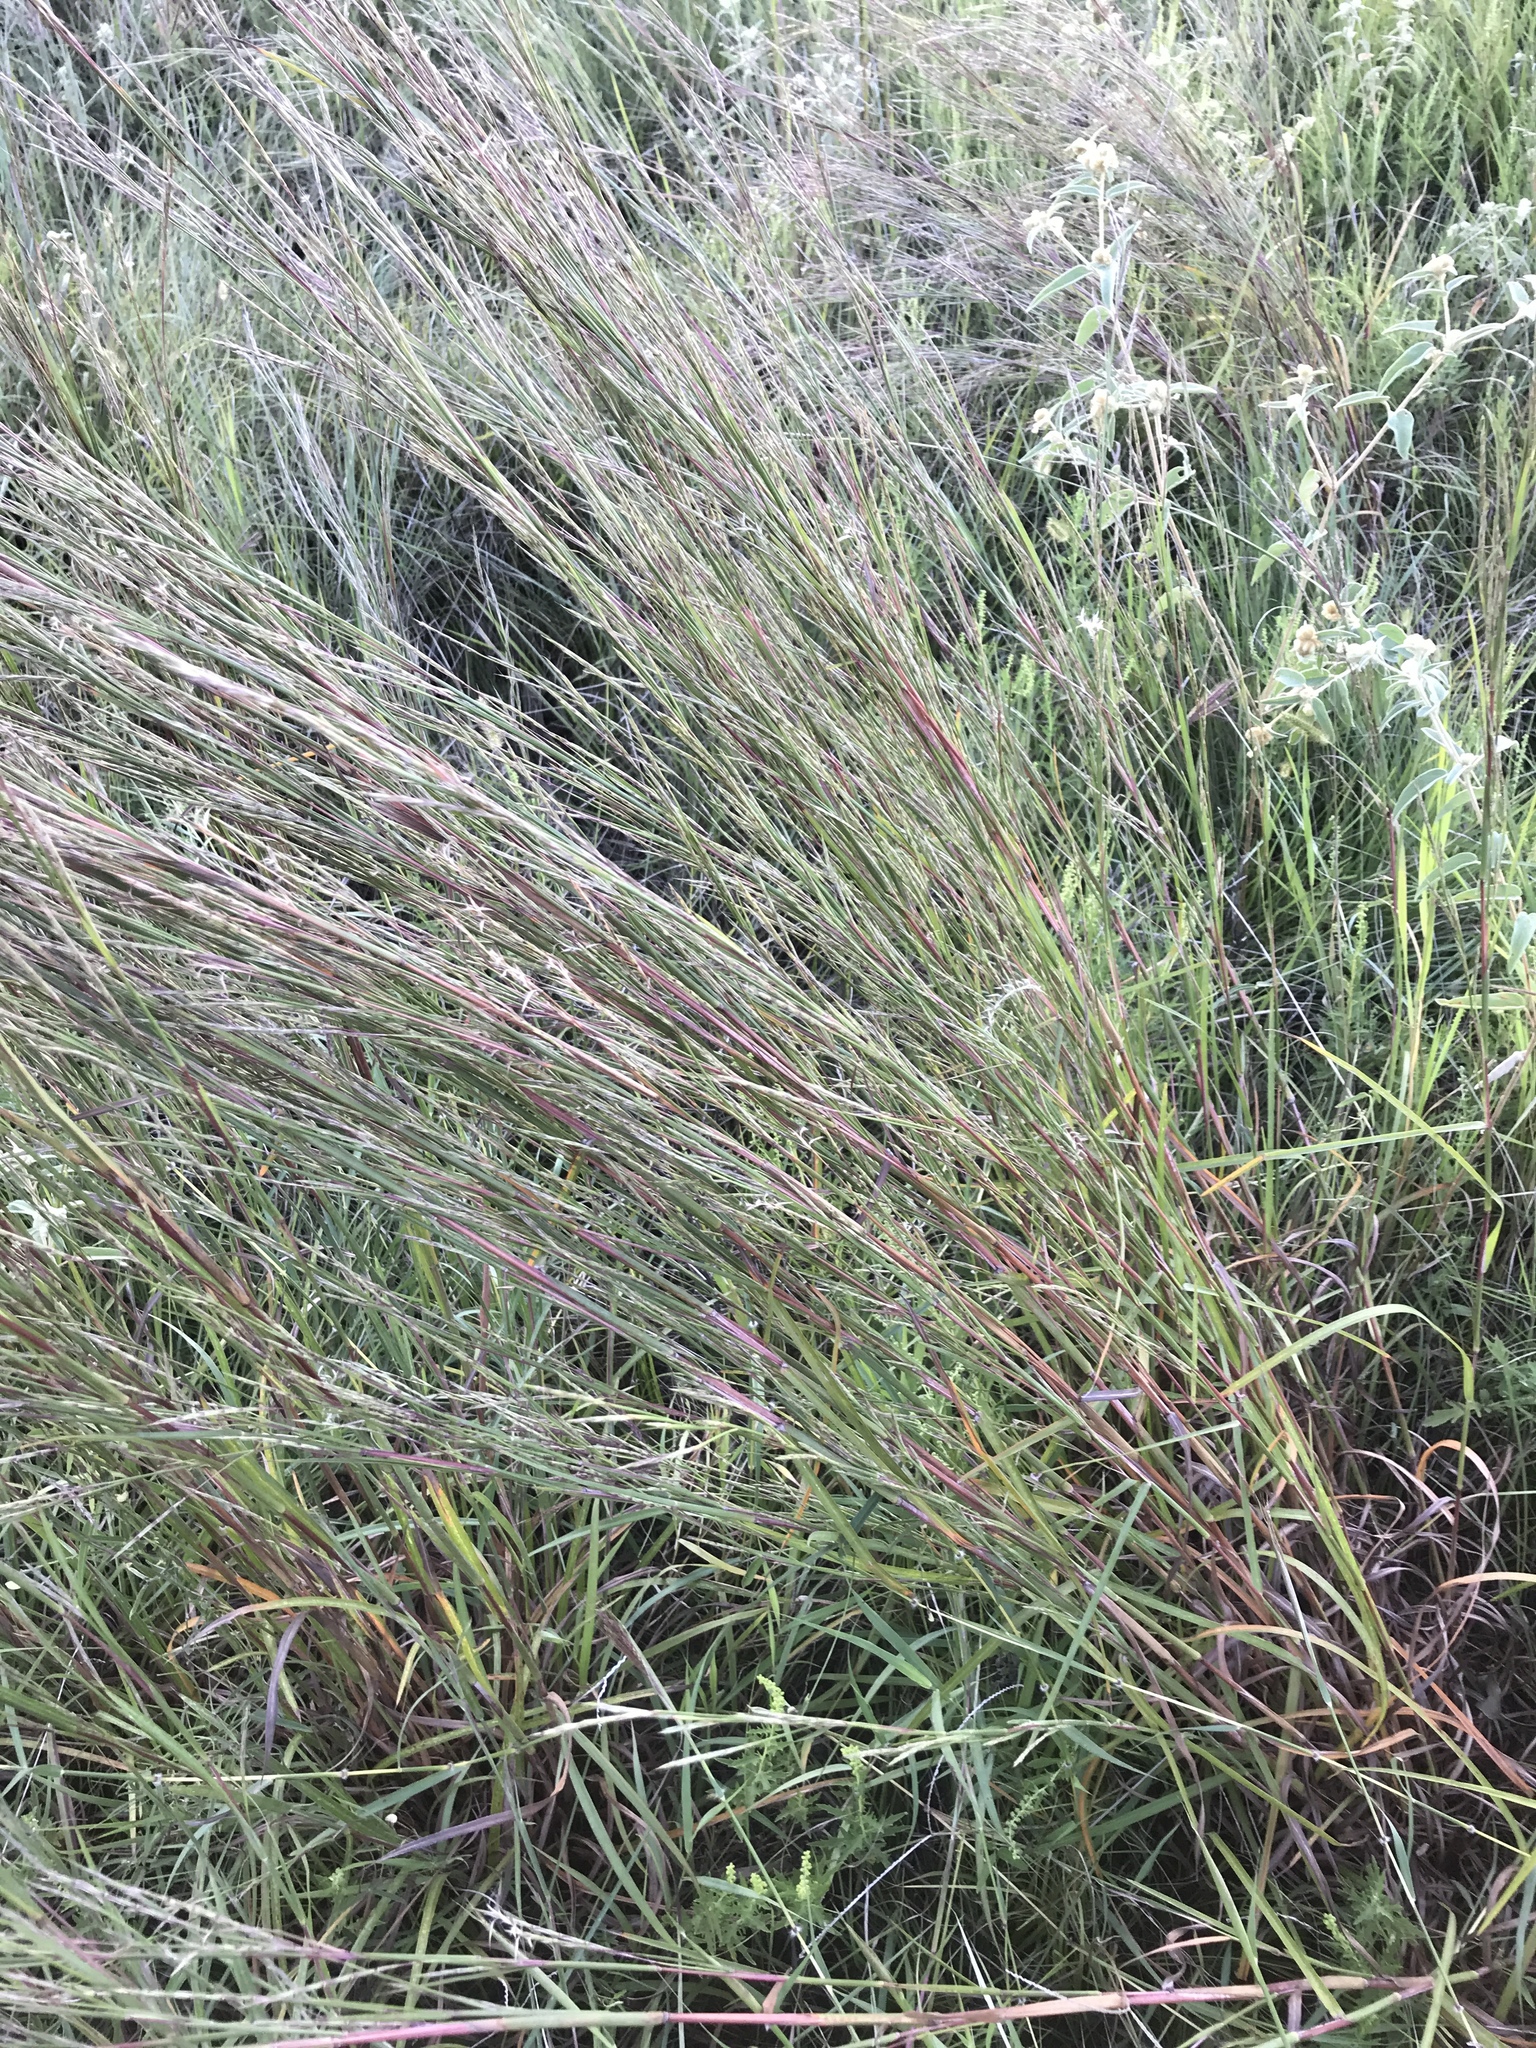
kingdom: Plantae
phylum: Tracheophyta
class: Liliopsida
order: Poales
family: Poaceae
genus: Schizachyrium
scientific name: Schizachyrium scoparium
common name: Little bluestem
